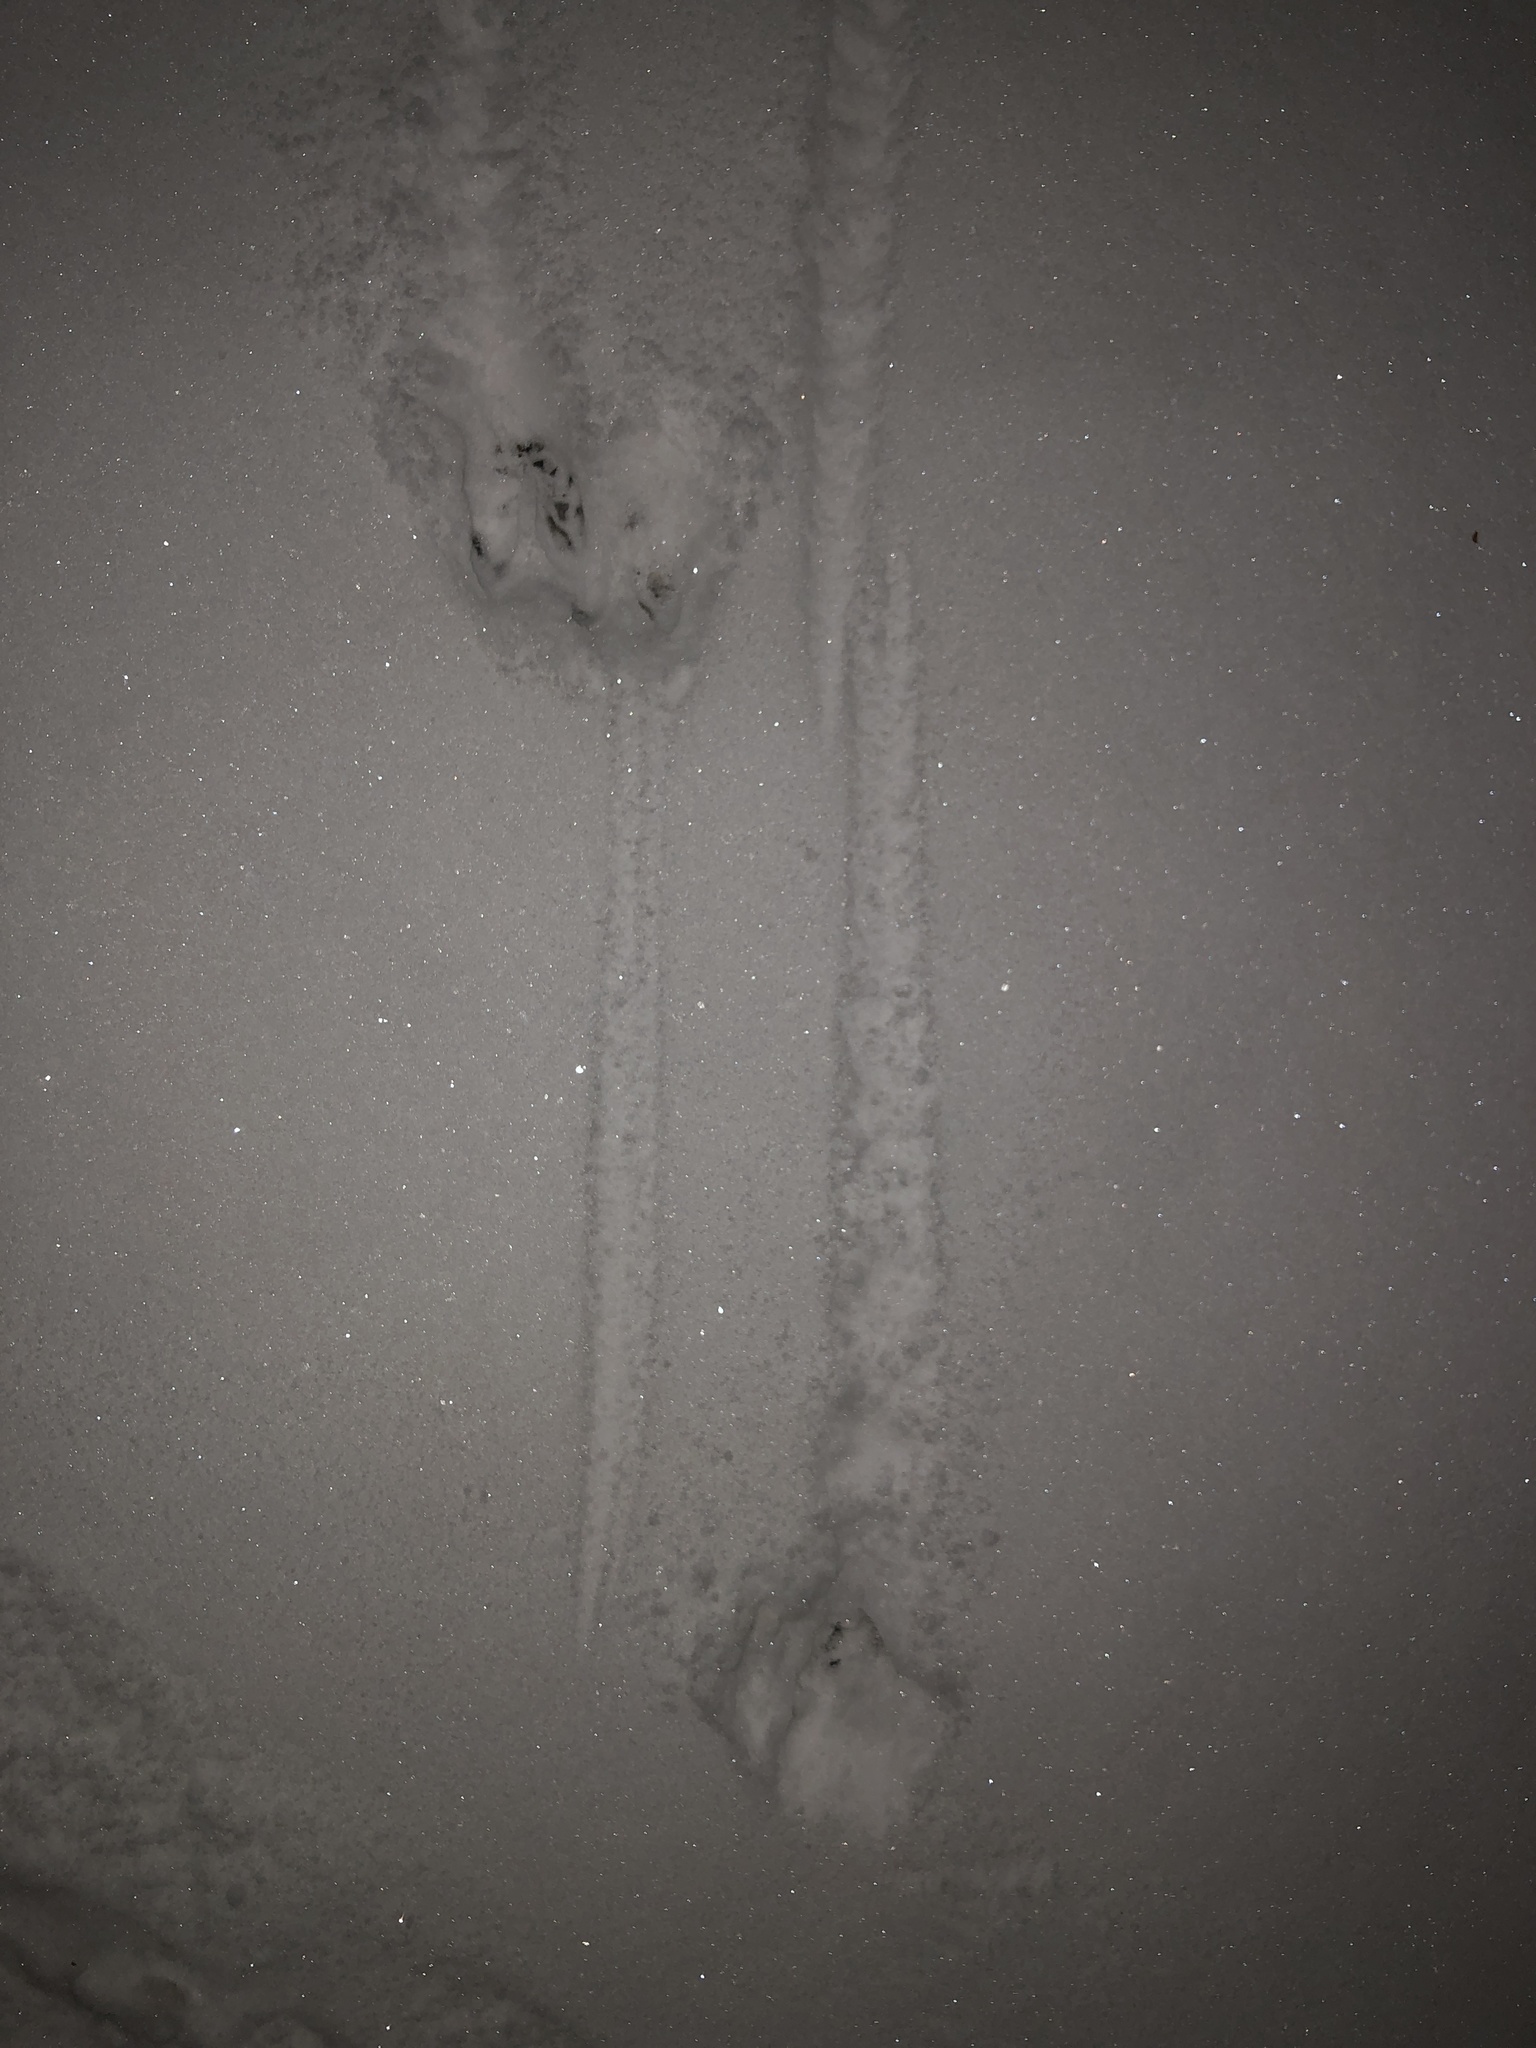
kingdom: Animalia
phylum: Chordata
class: Mammalia
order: Artiodactyla
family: Cervidae
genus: Odocoileus
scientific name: Odocoileus virginianus
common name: White-tailed deer
